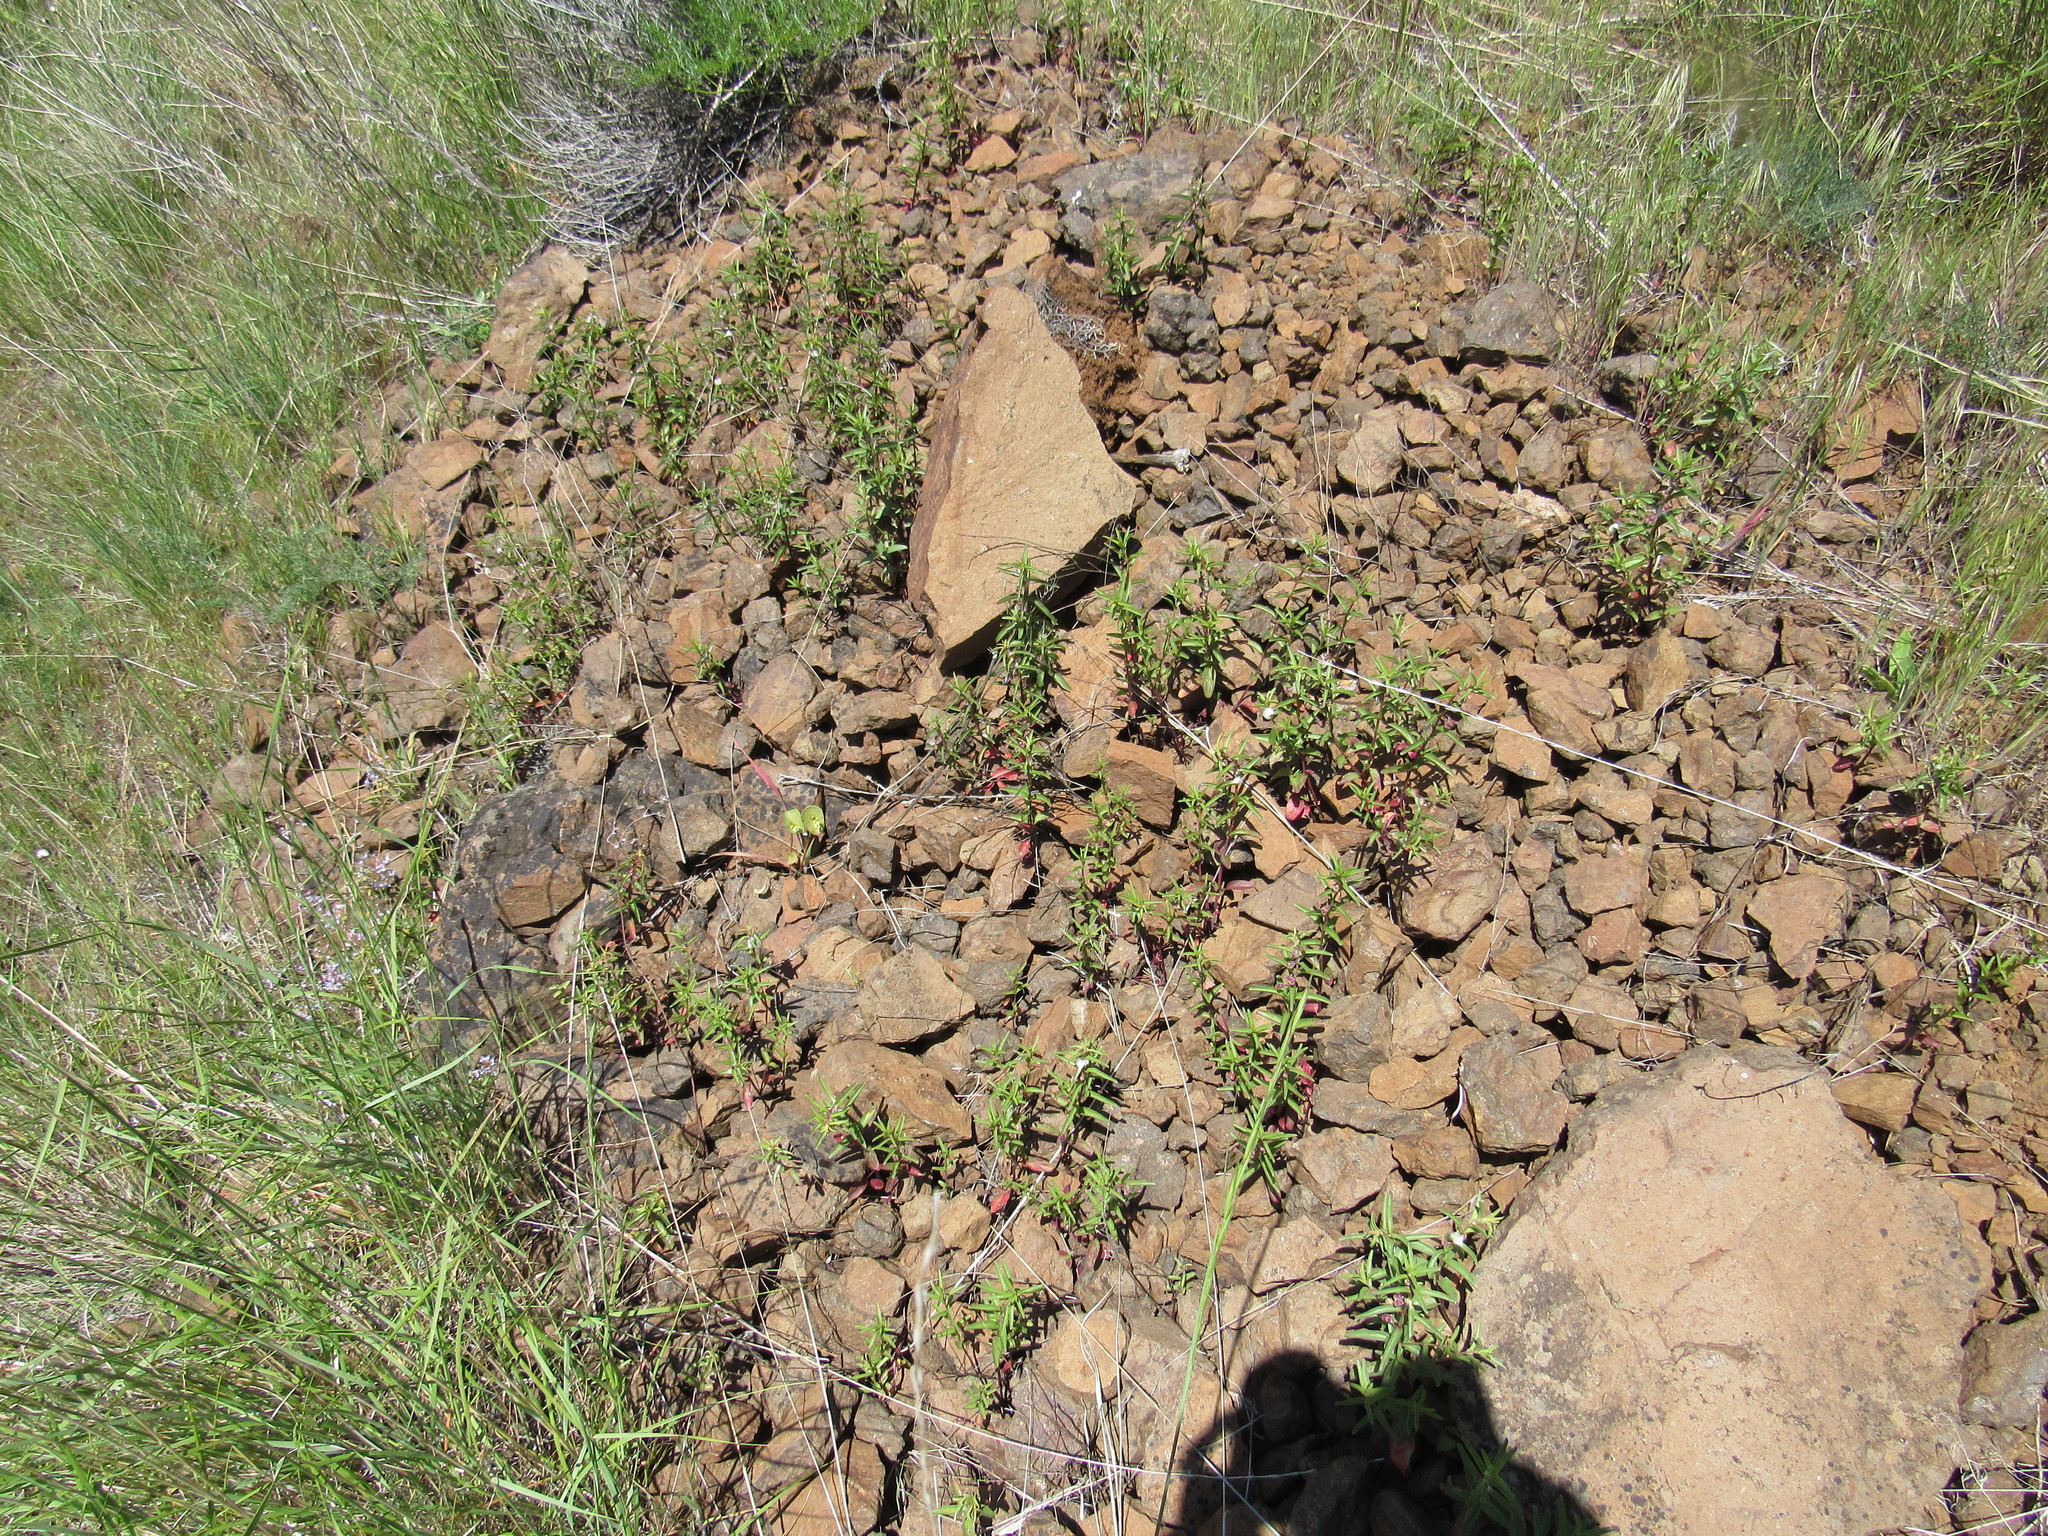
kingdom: Plantae
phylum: Tracheophyta
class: Magnoliopsida
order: Lamiales
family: Lamiaceae
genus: Scutellaria
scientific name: Scutellaria angustifolia
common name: Narrow-leaved skullcap
